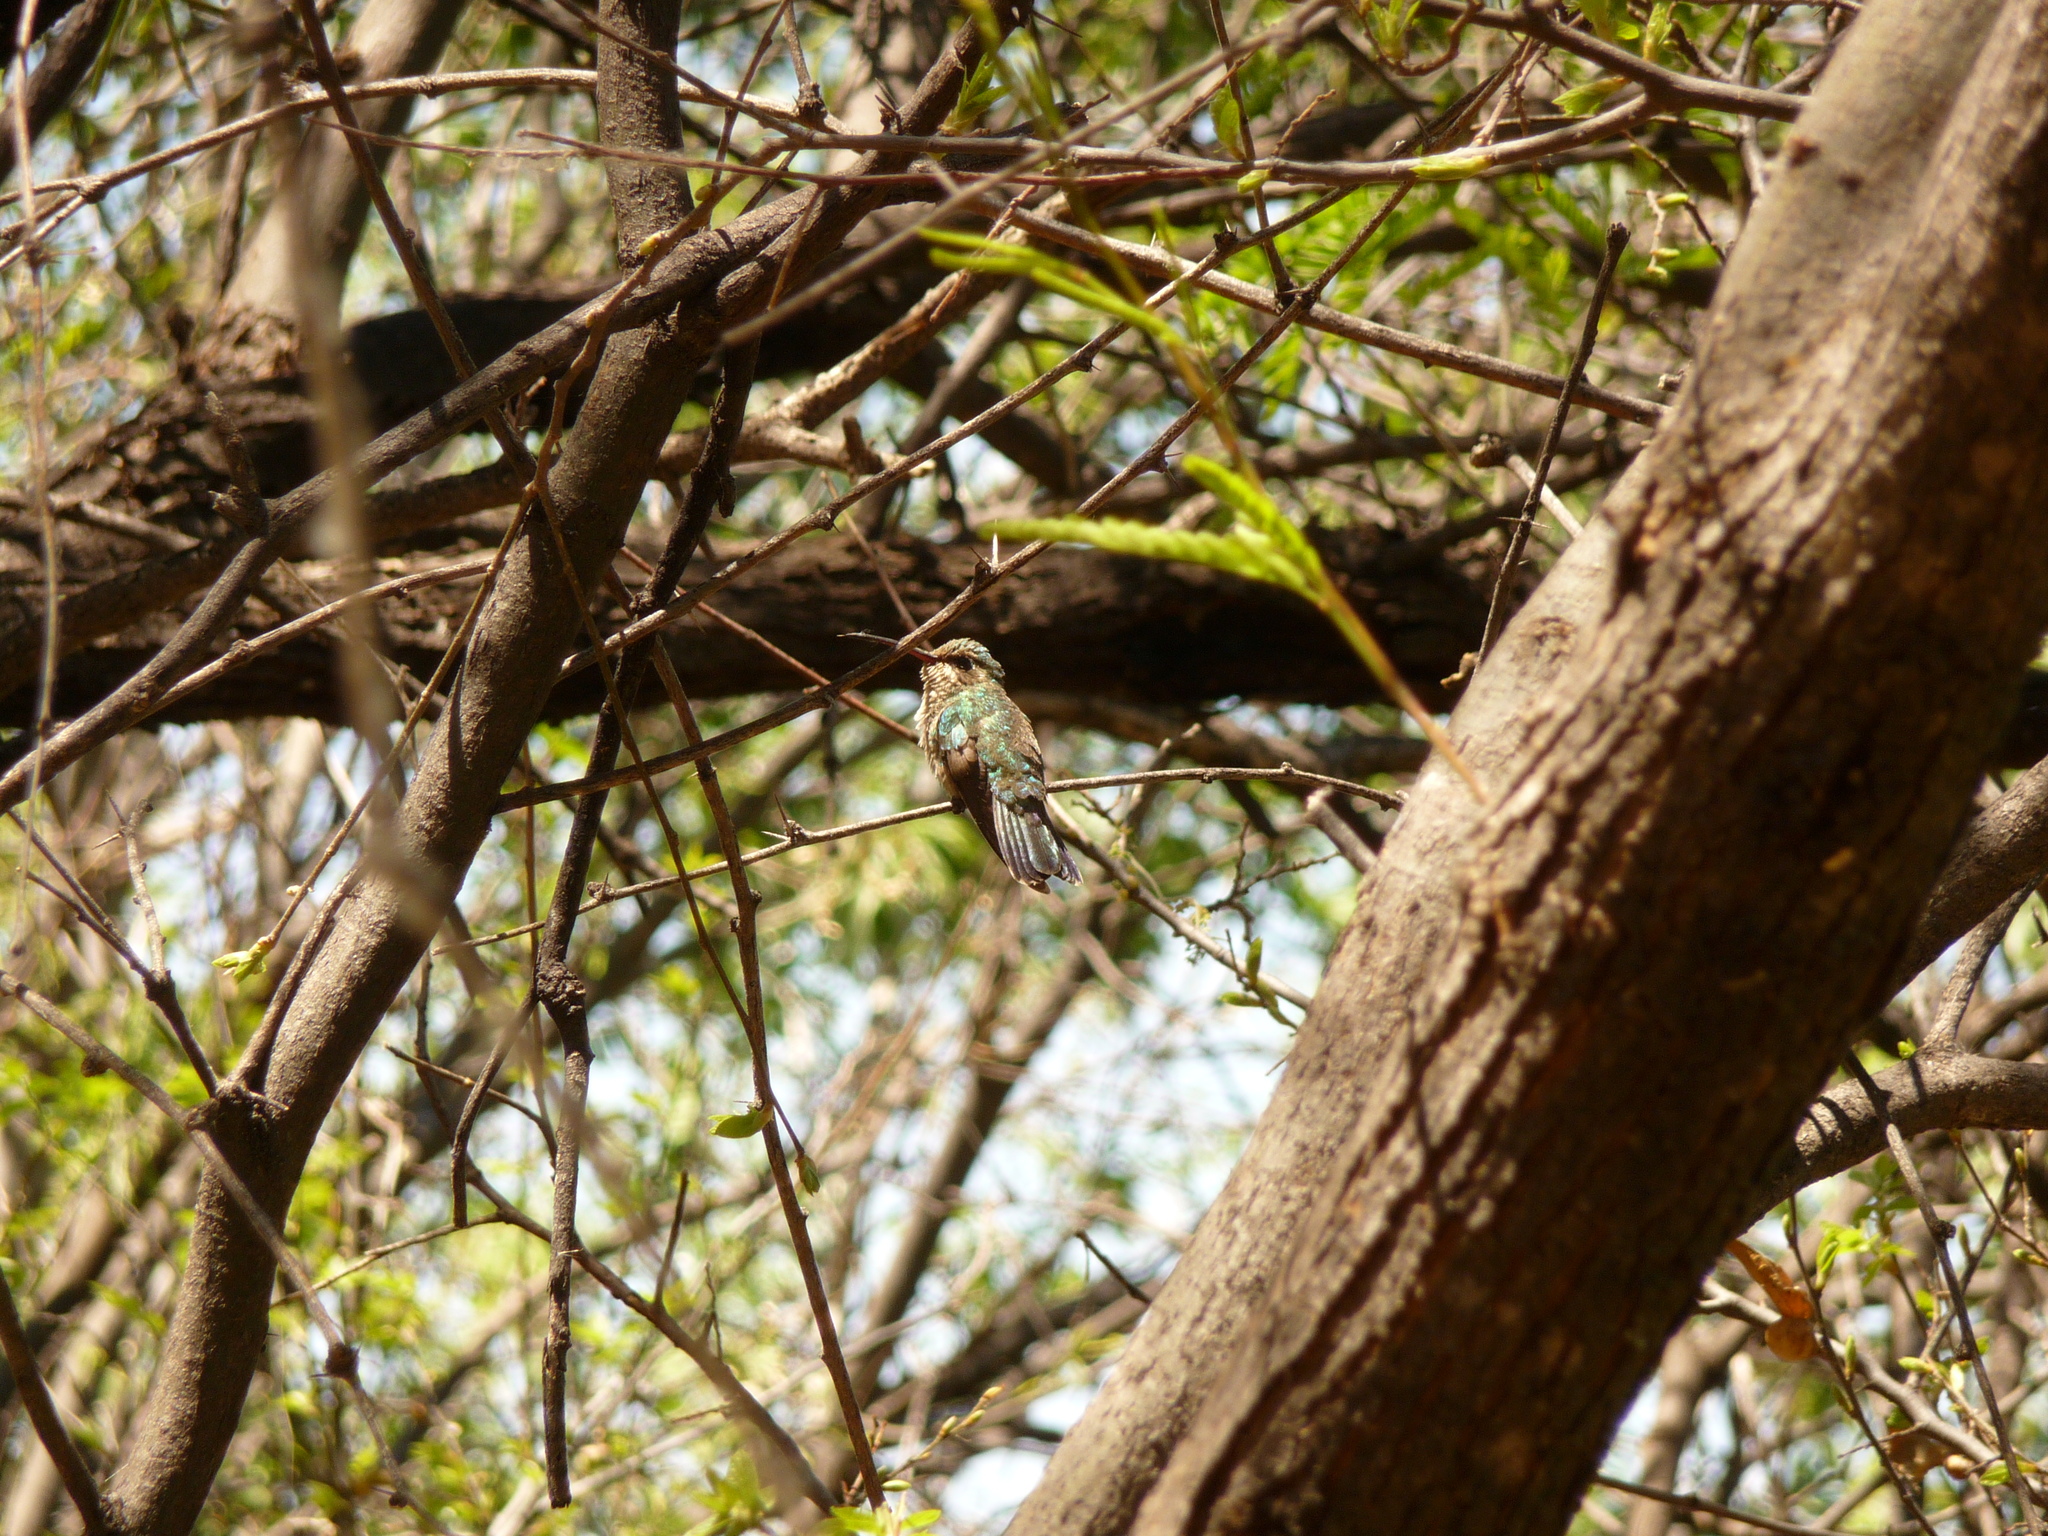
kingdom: Animalia
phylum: Chordata
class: Aves
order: Apodiformes
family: Trochilidae
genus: Cynanthus
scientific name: Cynanthus latirostris
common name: Broad-billed hummingbird
